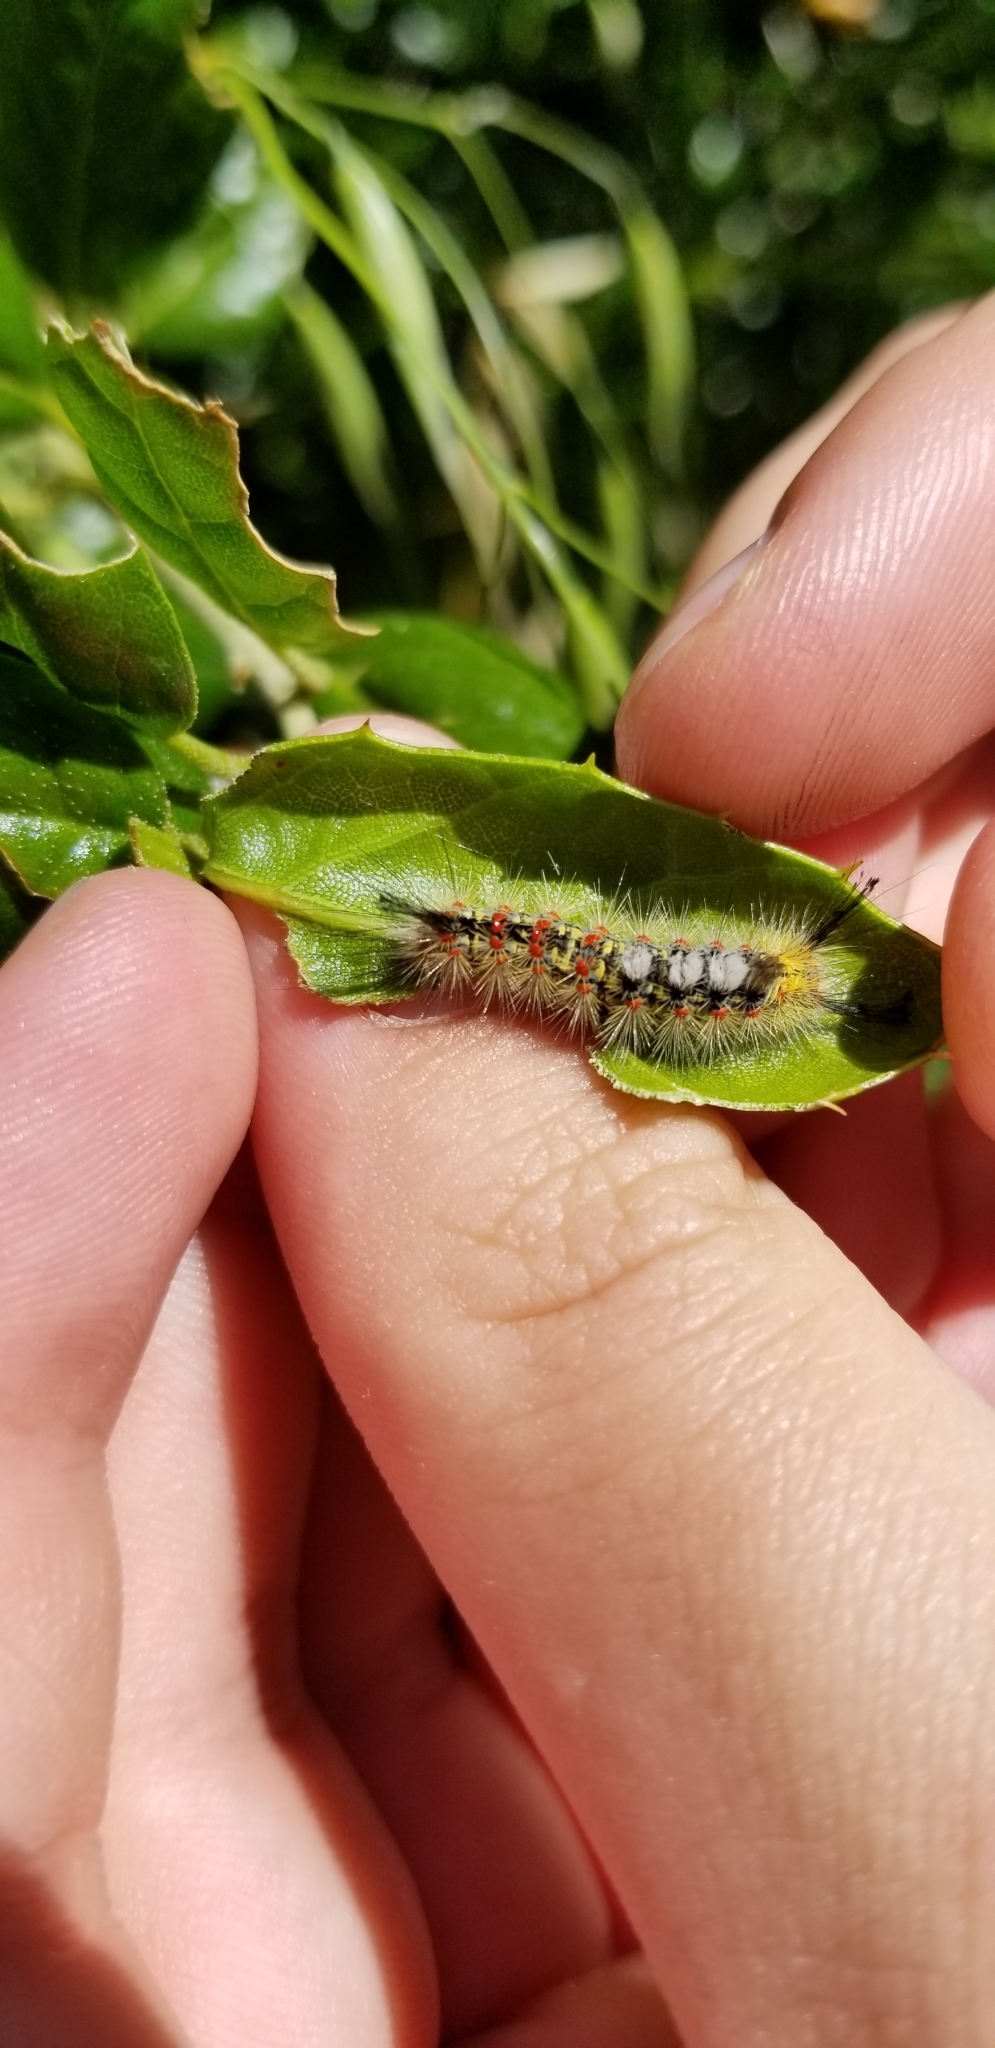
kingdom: Animalia
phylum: Arthropoda
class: Insecta
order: Lepidoptera
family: Erebidae
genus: Orgyia
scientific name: Orgyia
